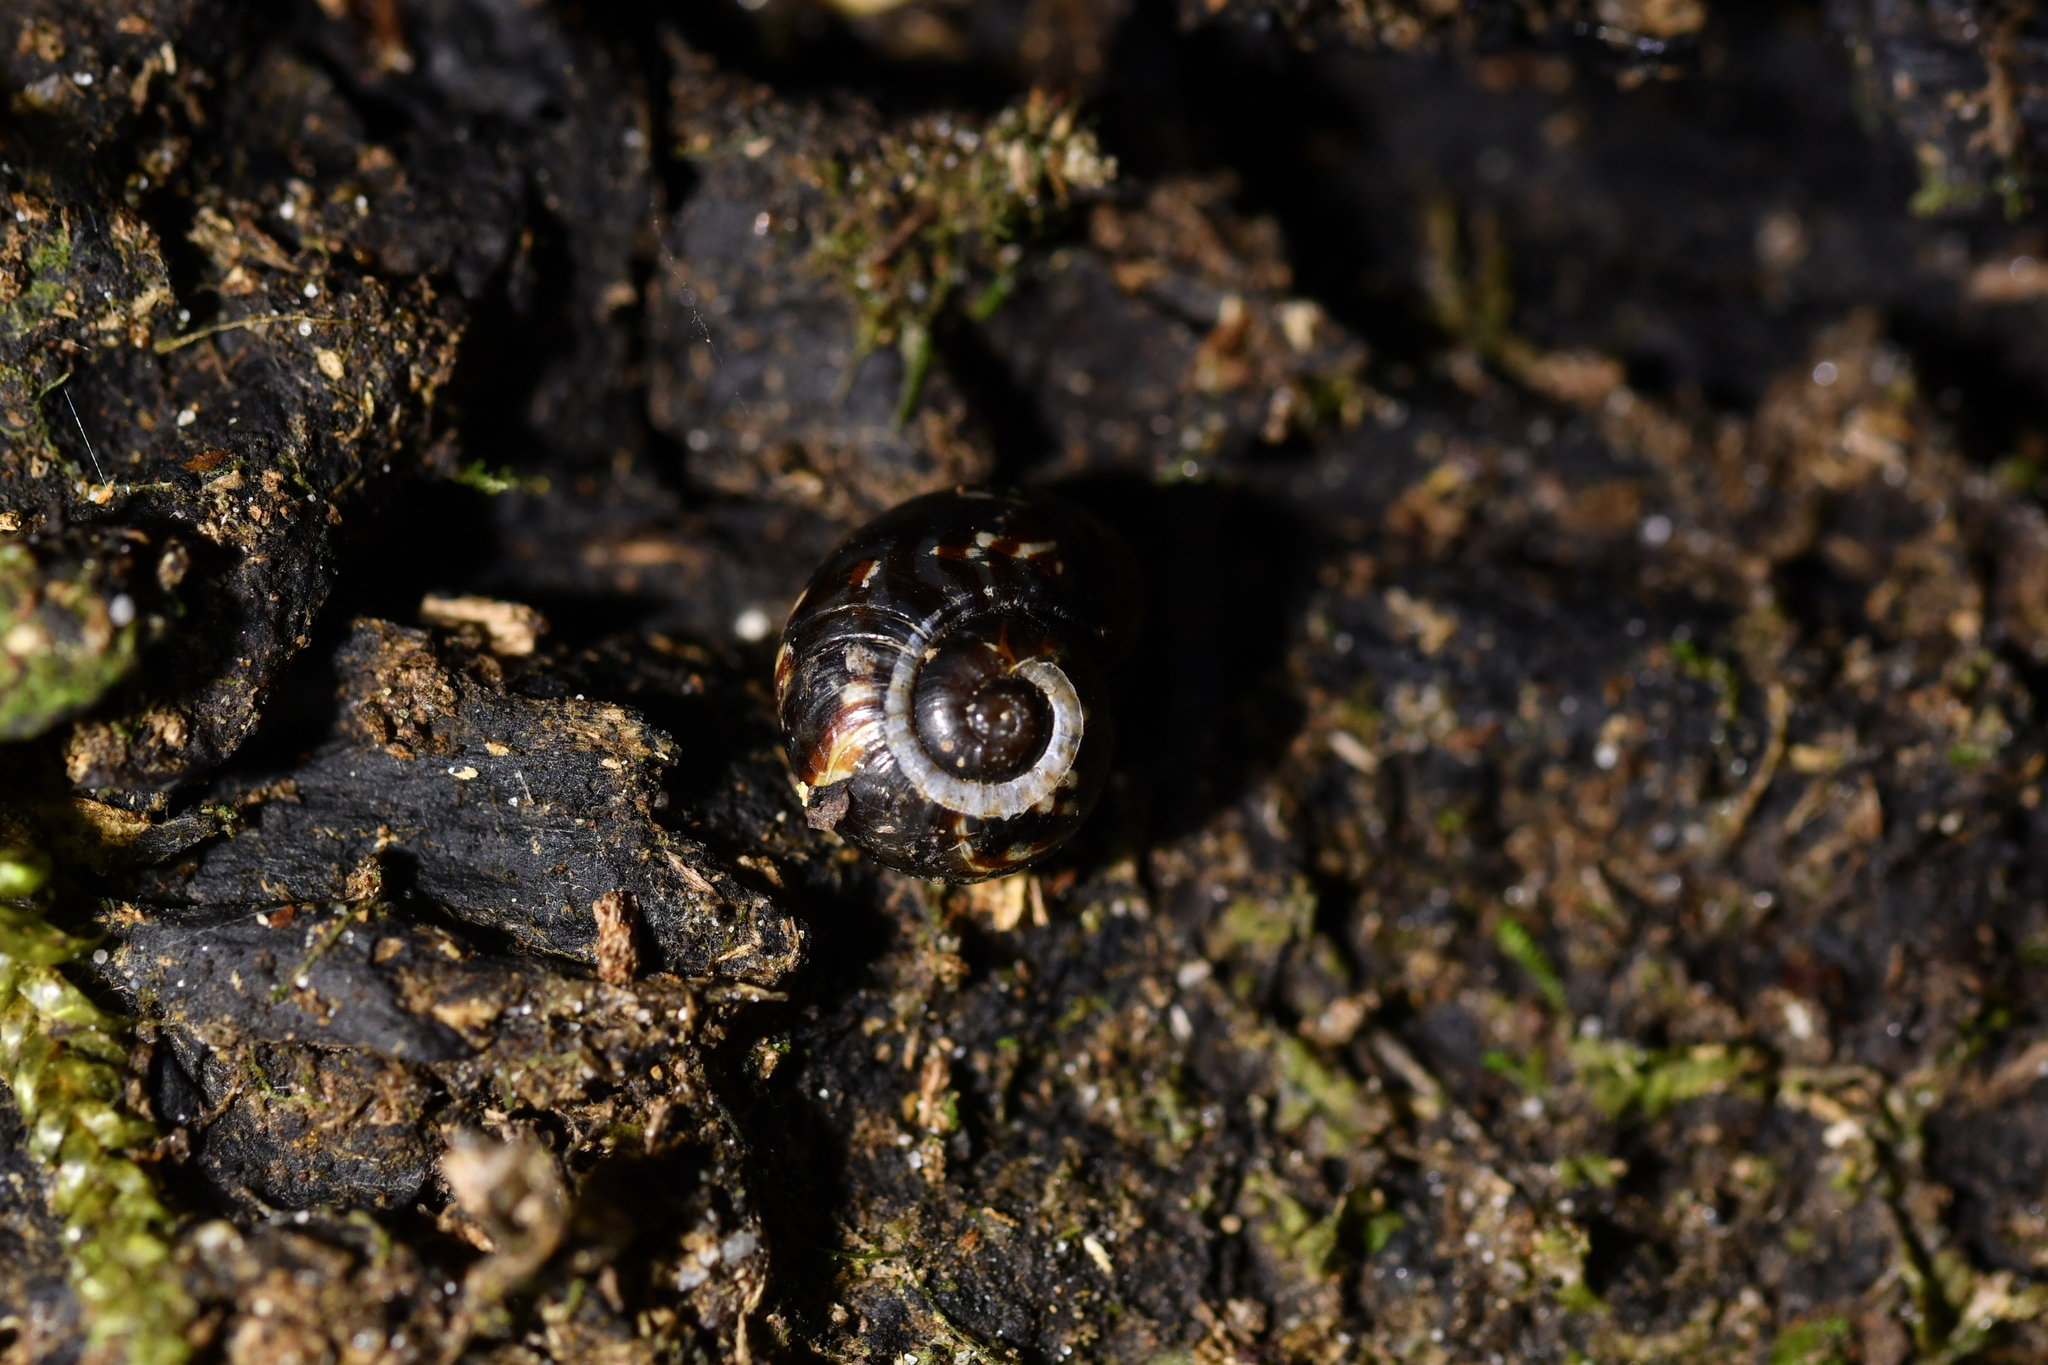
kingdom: Animalia
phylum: Mollusca
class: Gastropoda
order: Stylommatophora
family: Charopidae
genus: Flammulina
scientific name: Flammulina zebra
